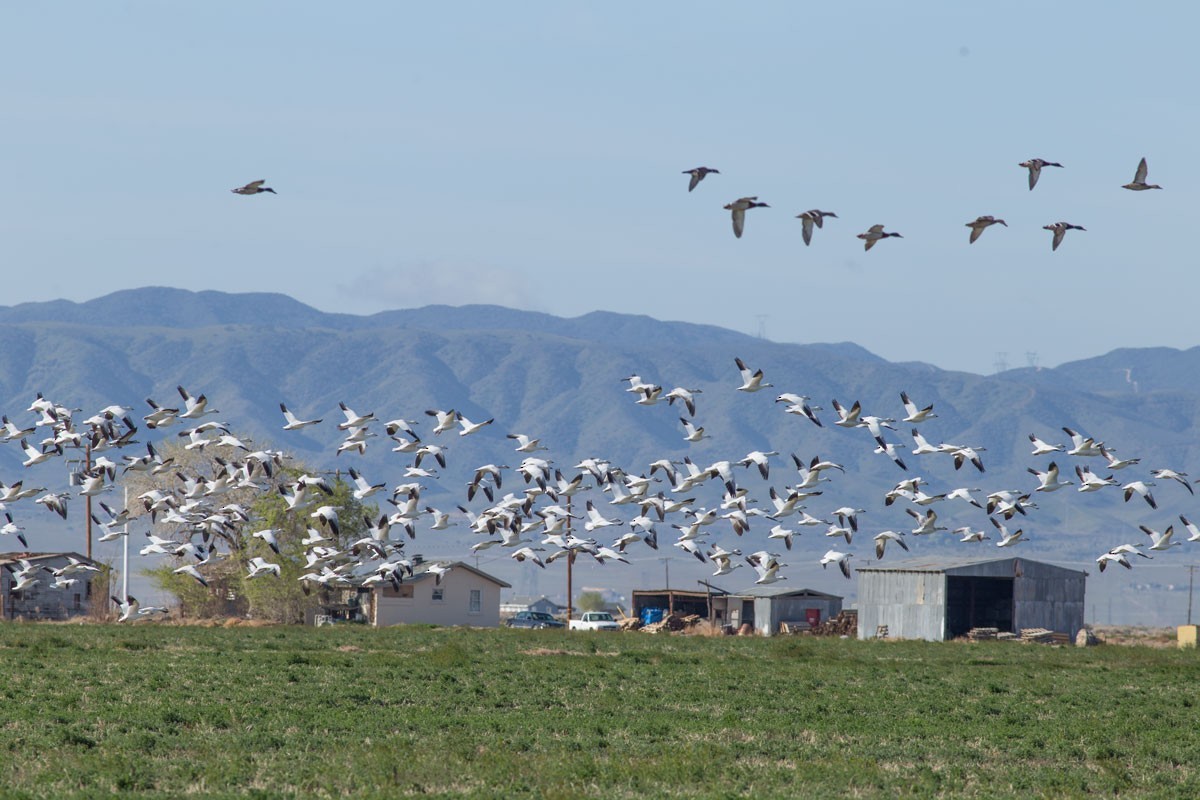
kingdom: Animalia
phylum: Chordata
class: Aves
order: Anseriformes
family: Anatidae
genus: Anser
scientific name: Anser caerulescens
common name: Snow goose
